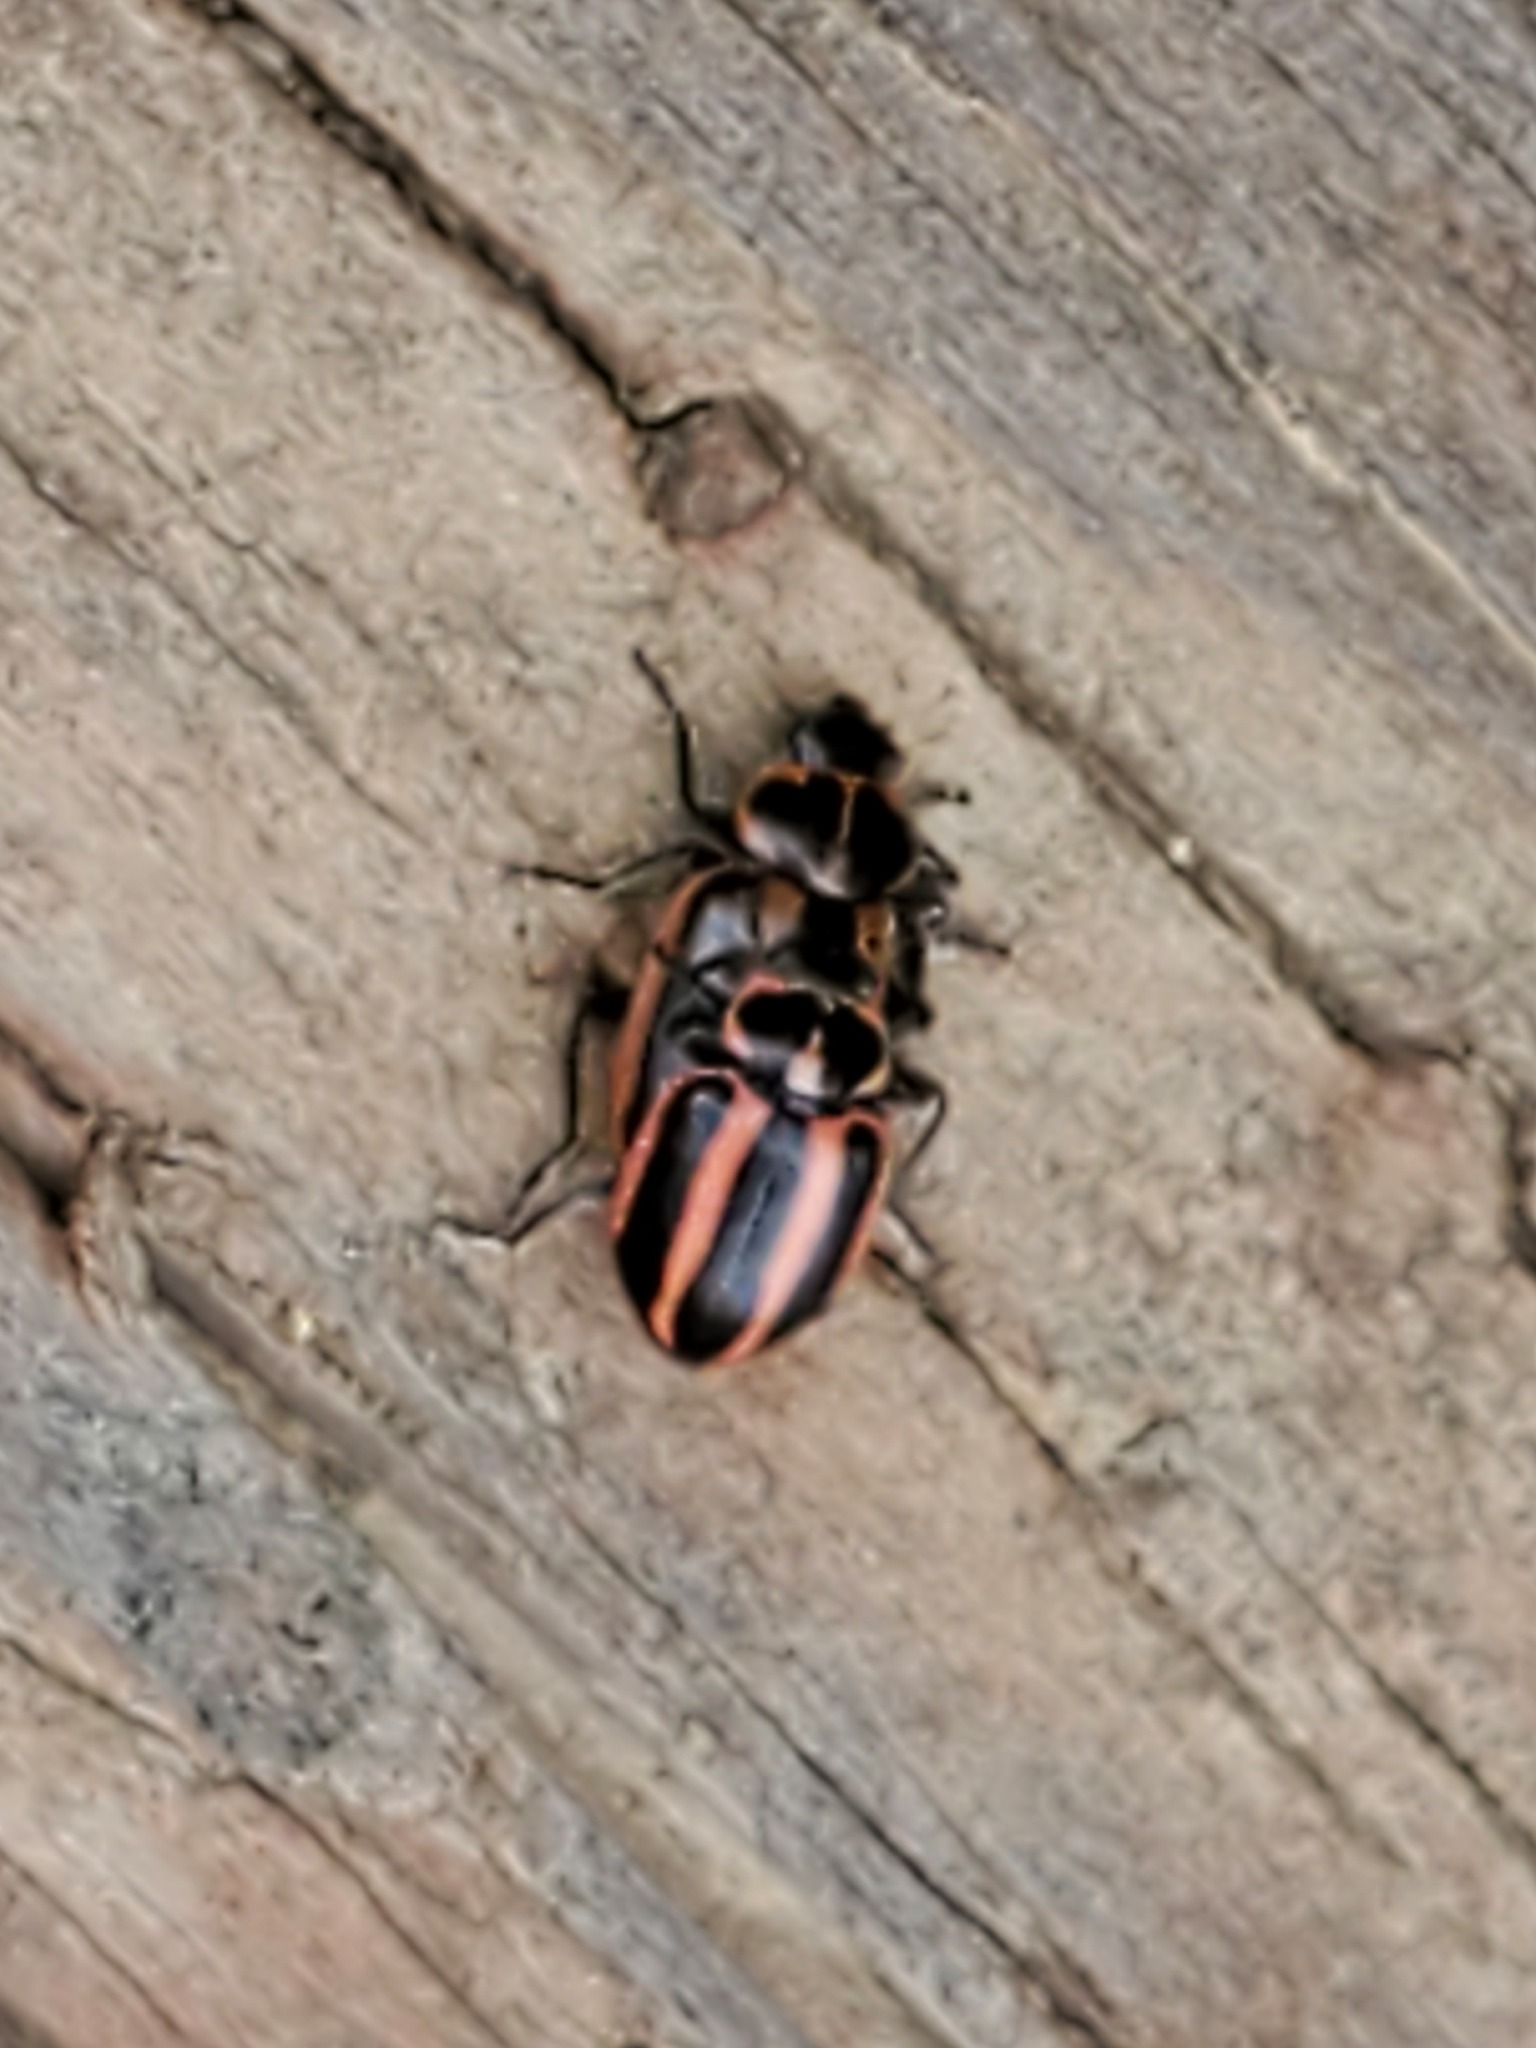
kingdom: Animalia
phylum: Arthropoda
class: Insecta
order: Coleoptera
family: Coccinellidae
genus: Paranaemia
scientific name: Paranaemia vittigera
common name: Ladybird beetle
